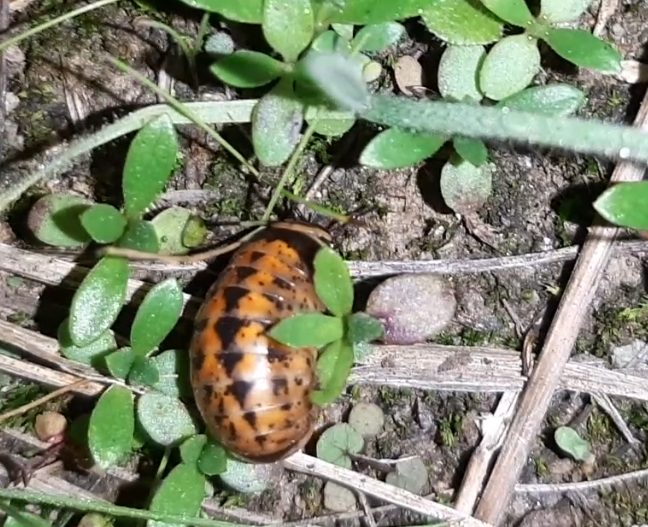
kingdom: Animalia
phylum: Arthropoda
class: Diplopoda
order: Glomerida
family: Glomeridae
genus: Glomeris
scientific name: Glomeris klugii
